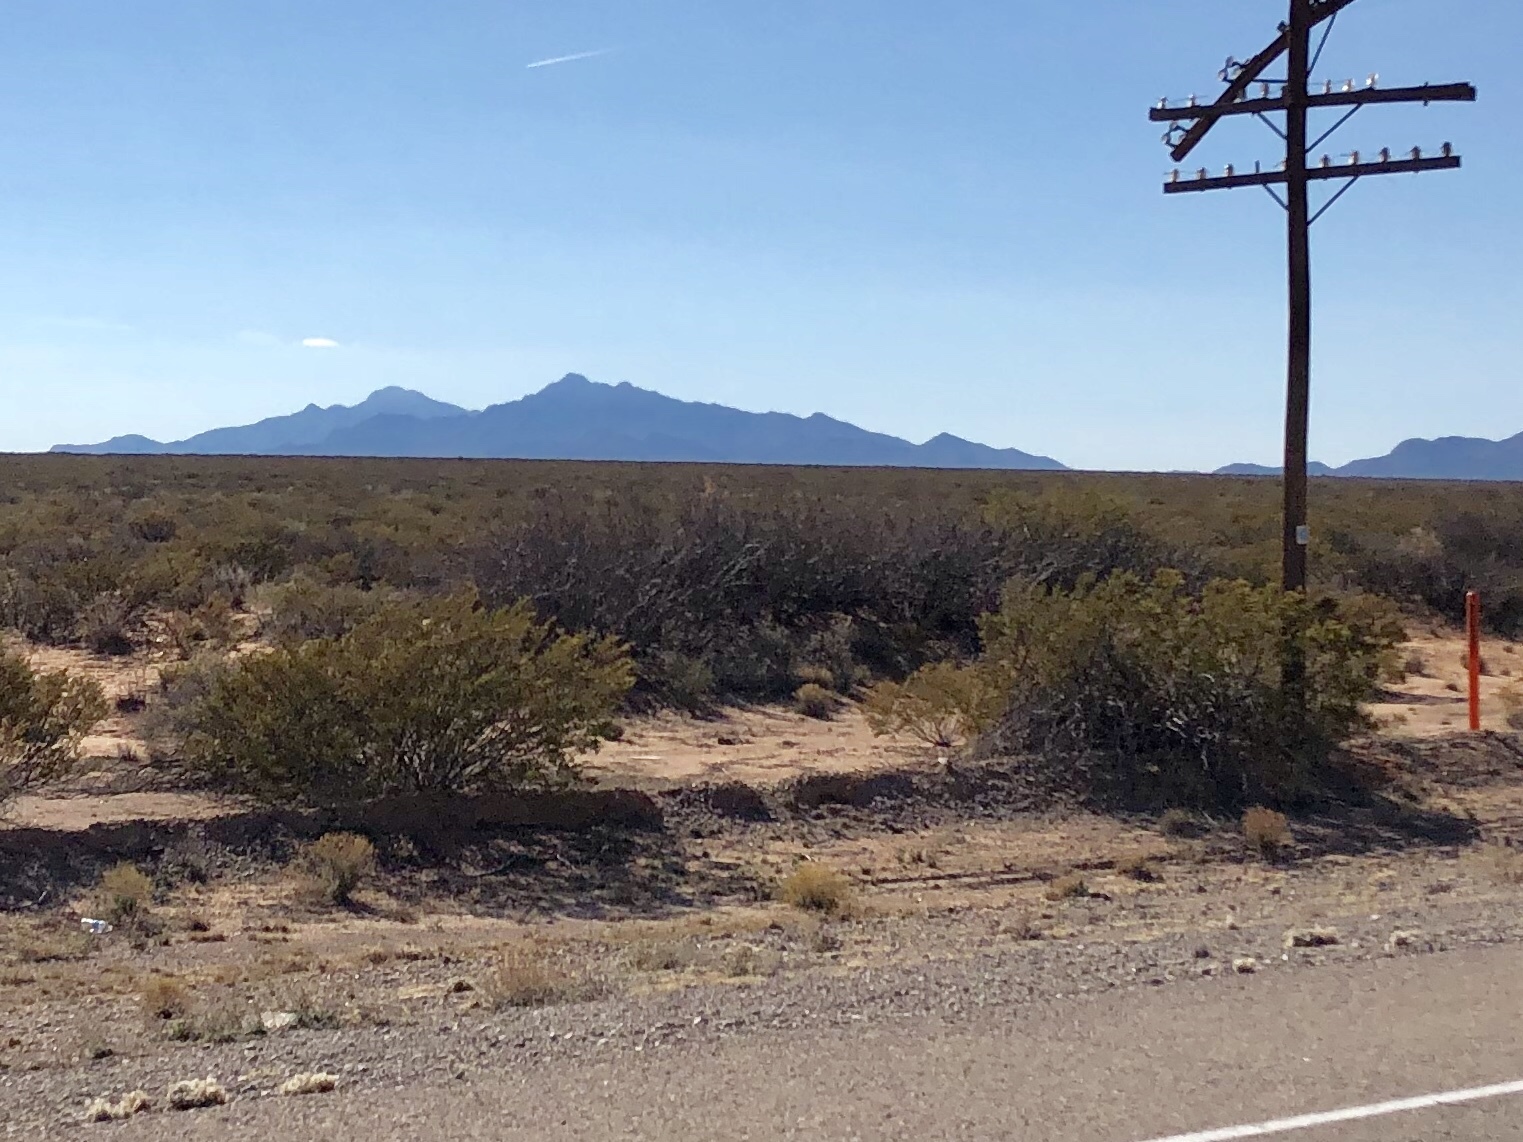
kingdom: Plantae
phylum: Tracheophyta
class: Magnoliopsida
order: Zygophyllales
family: Zygophyllaceae
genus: Larrea
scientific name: Larrea tridentata
